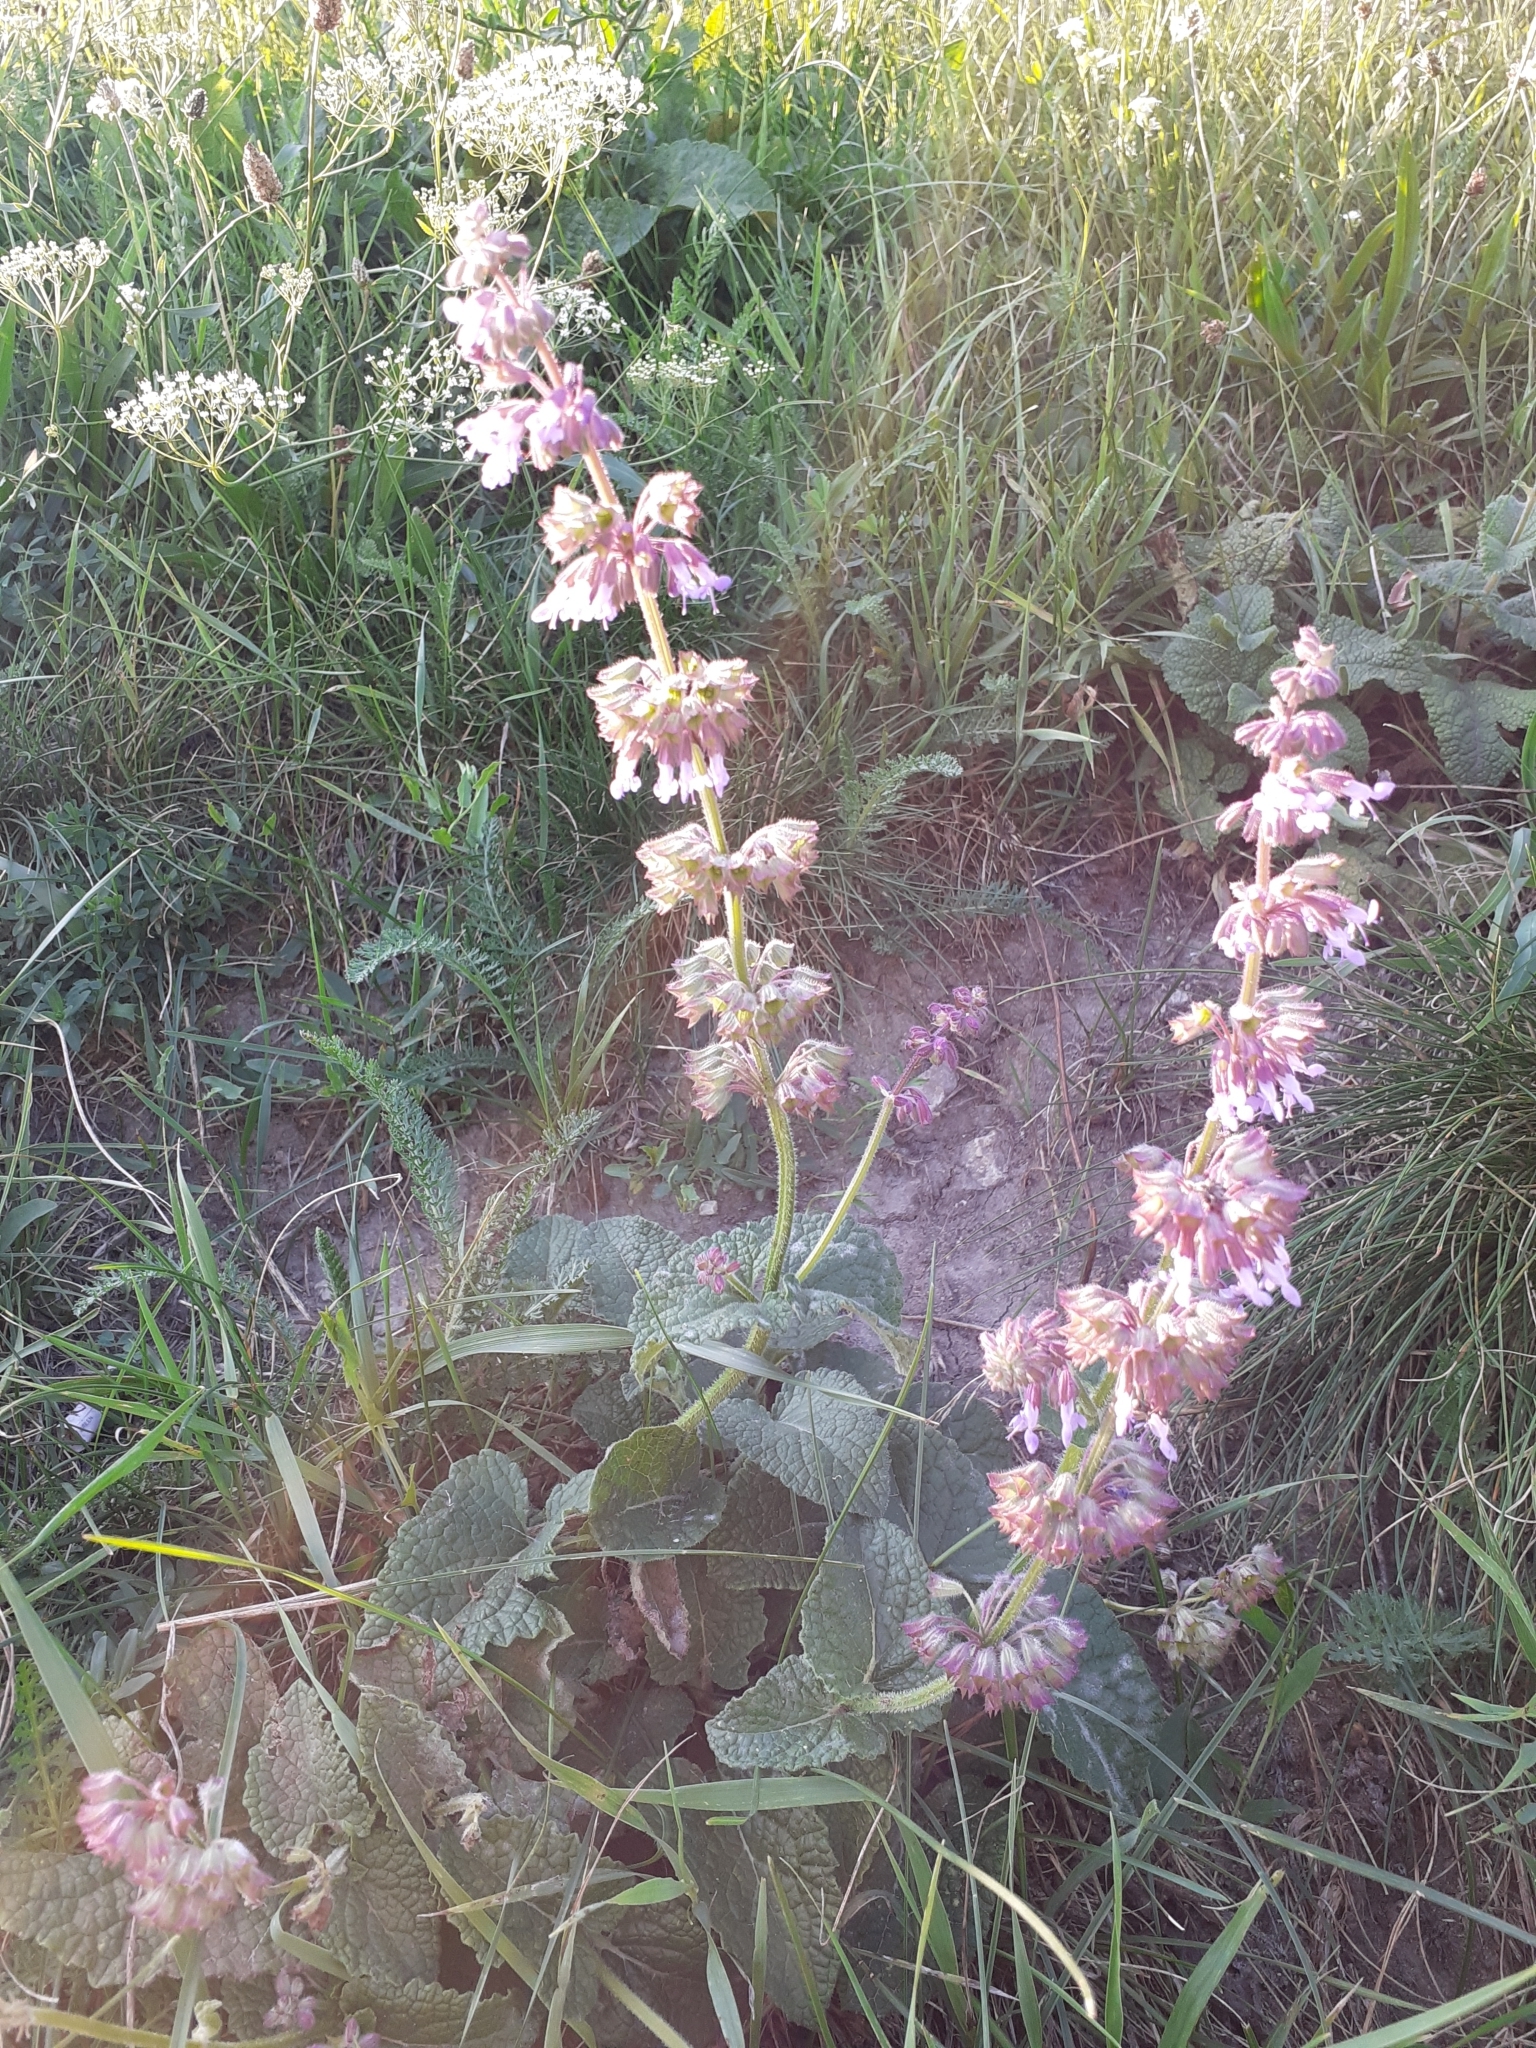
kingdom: Plantae
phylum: Tracheophyta
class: Magnoliopsida
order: Lamiales
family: Lamiaceae
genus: Salvia
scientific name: Salvia verticillata
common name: Whorled clary
